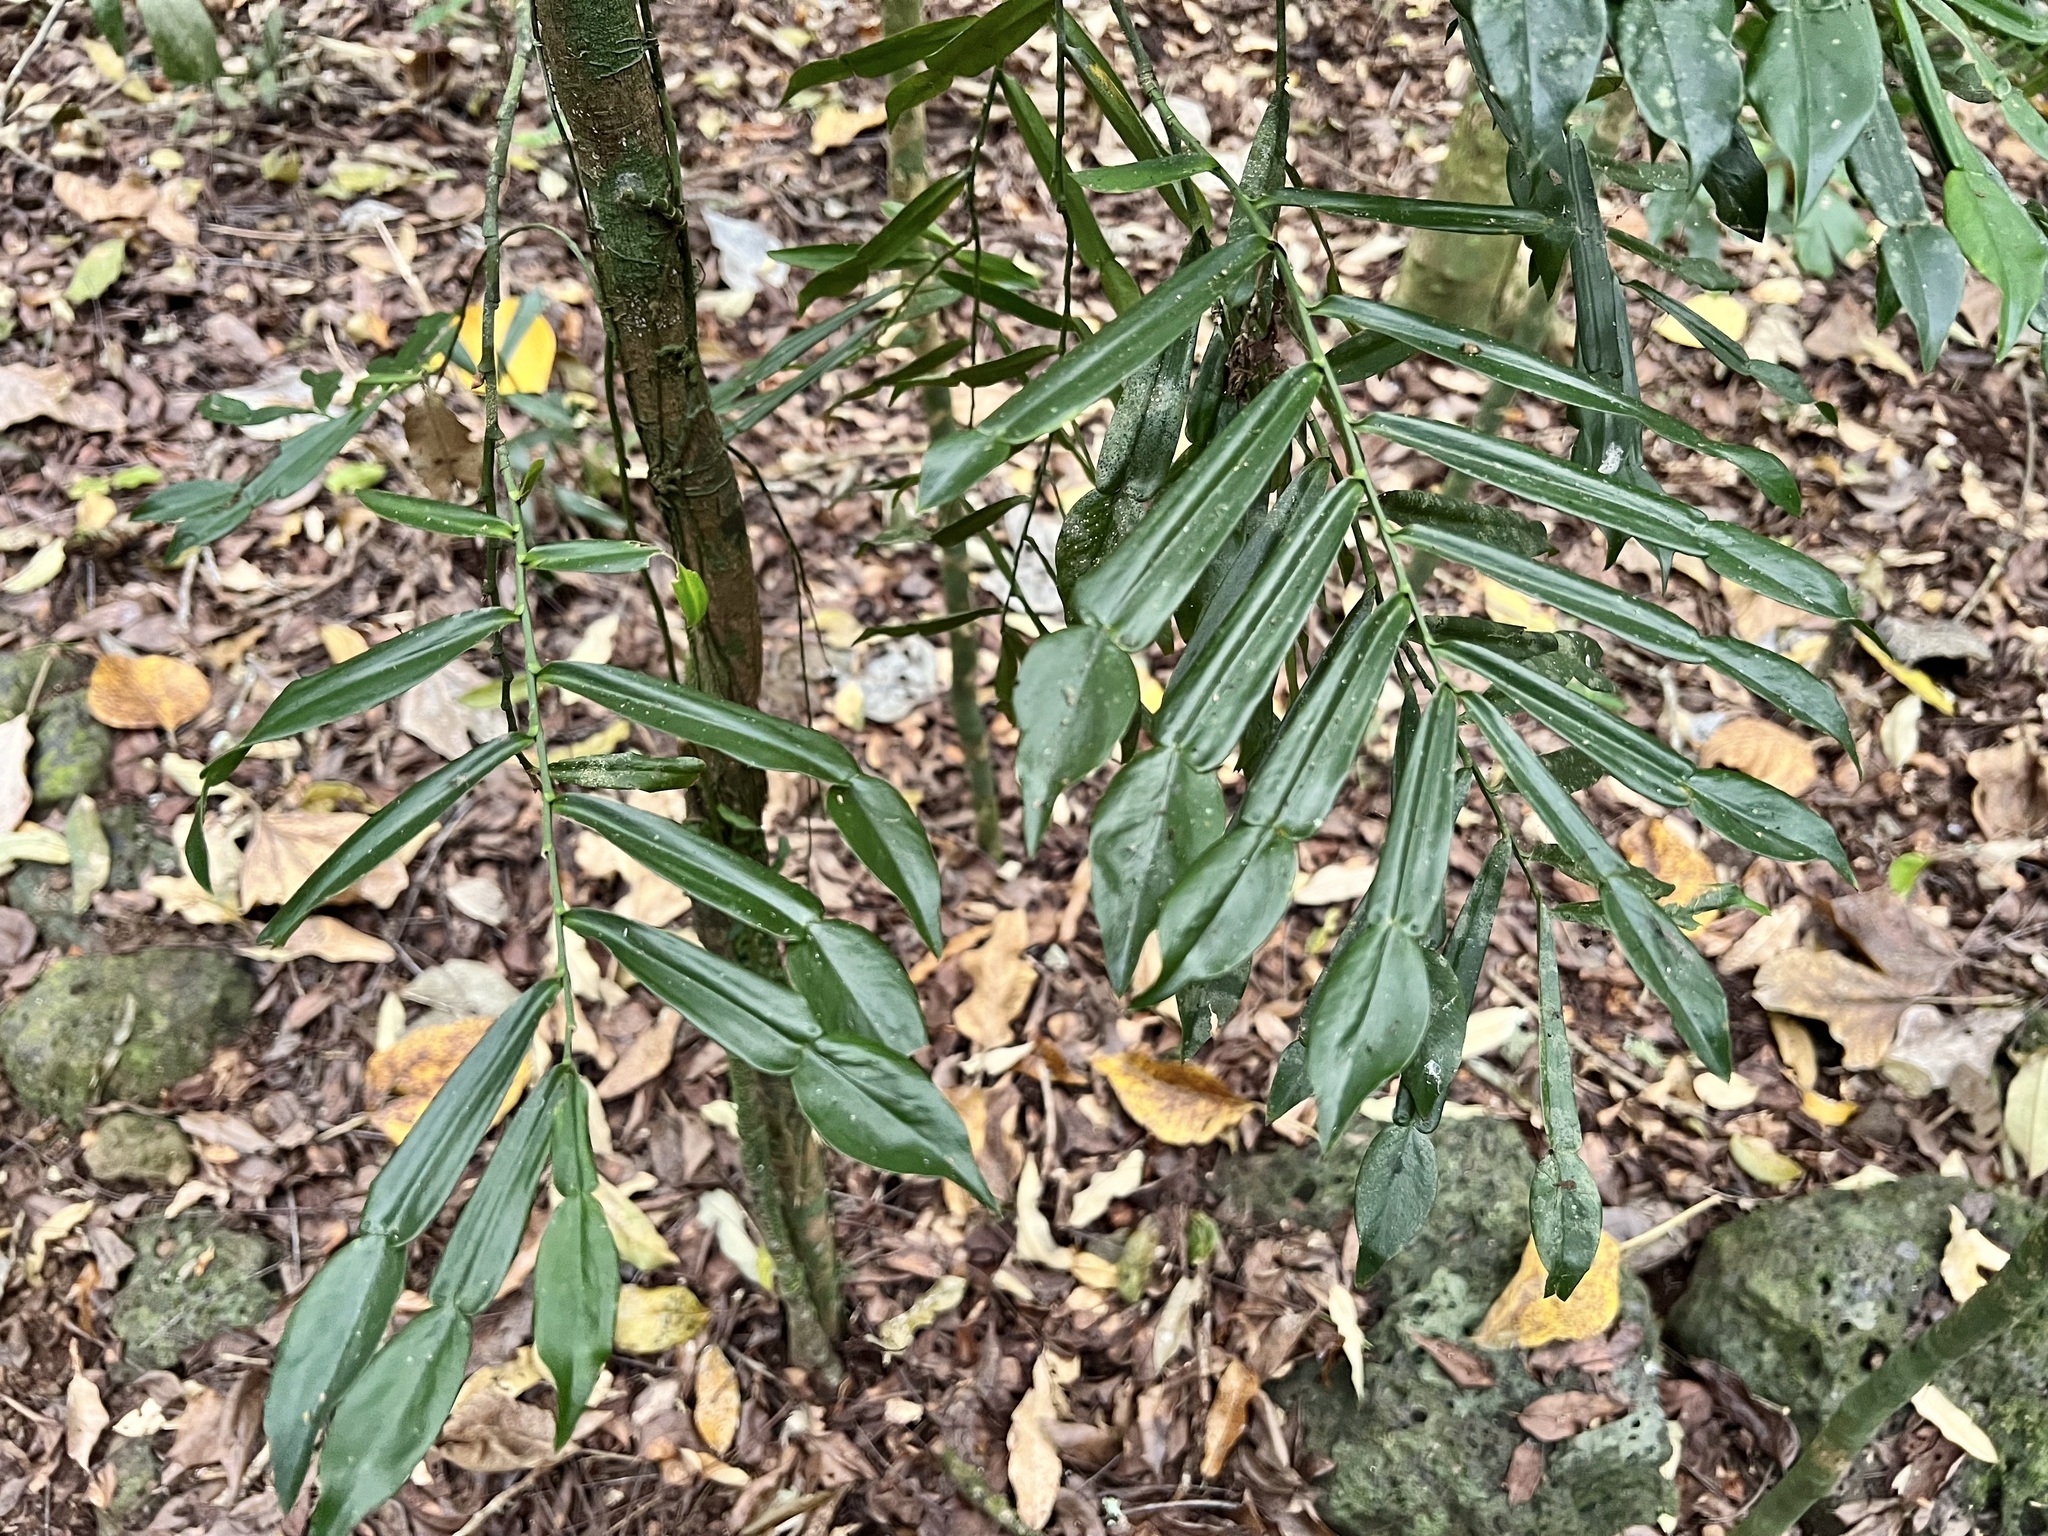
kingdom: Plantae
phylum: Tracheophyta
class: Liliopsida
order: Alismatales
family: Araceae
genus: Pothos
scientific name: Pothos longipes
